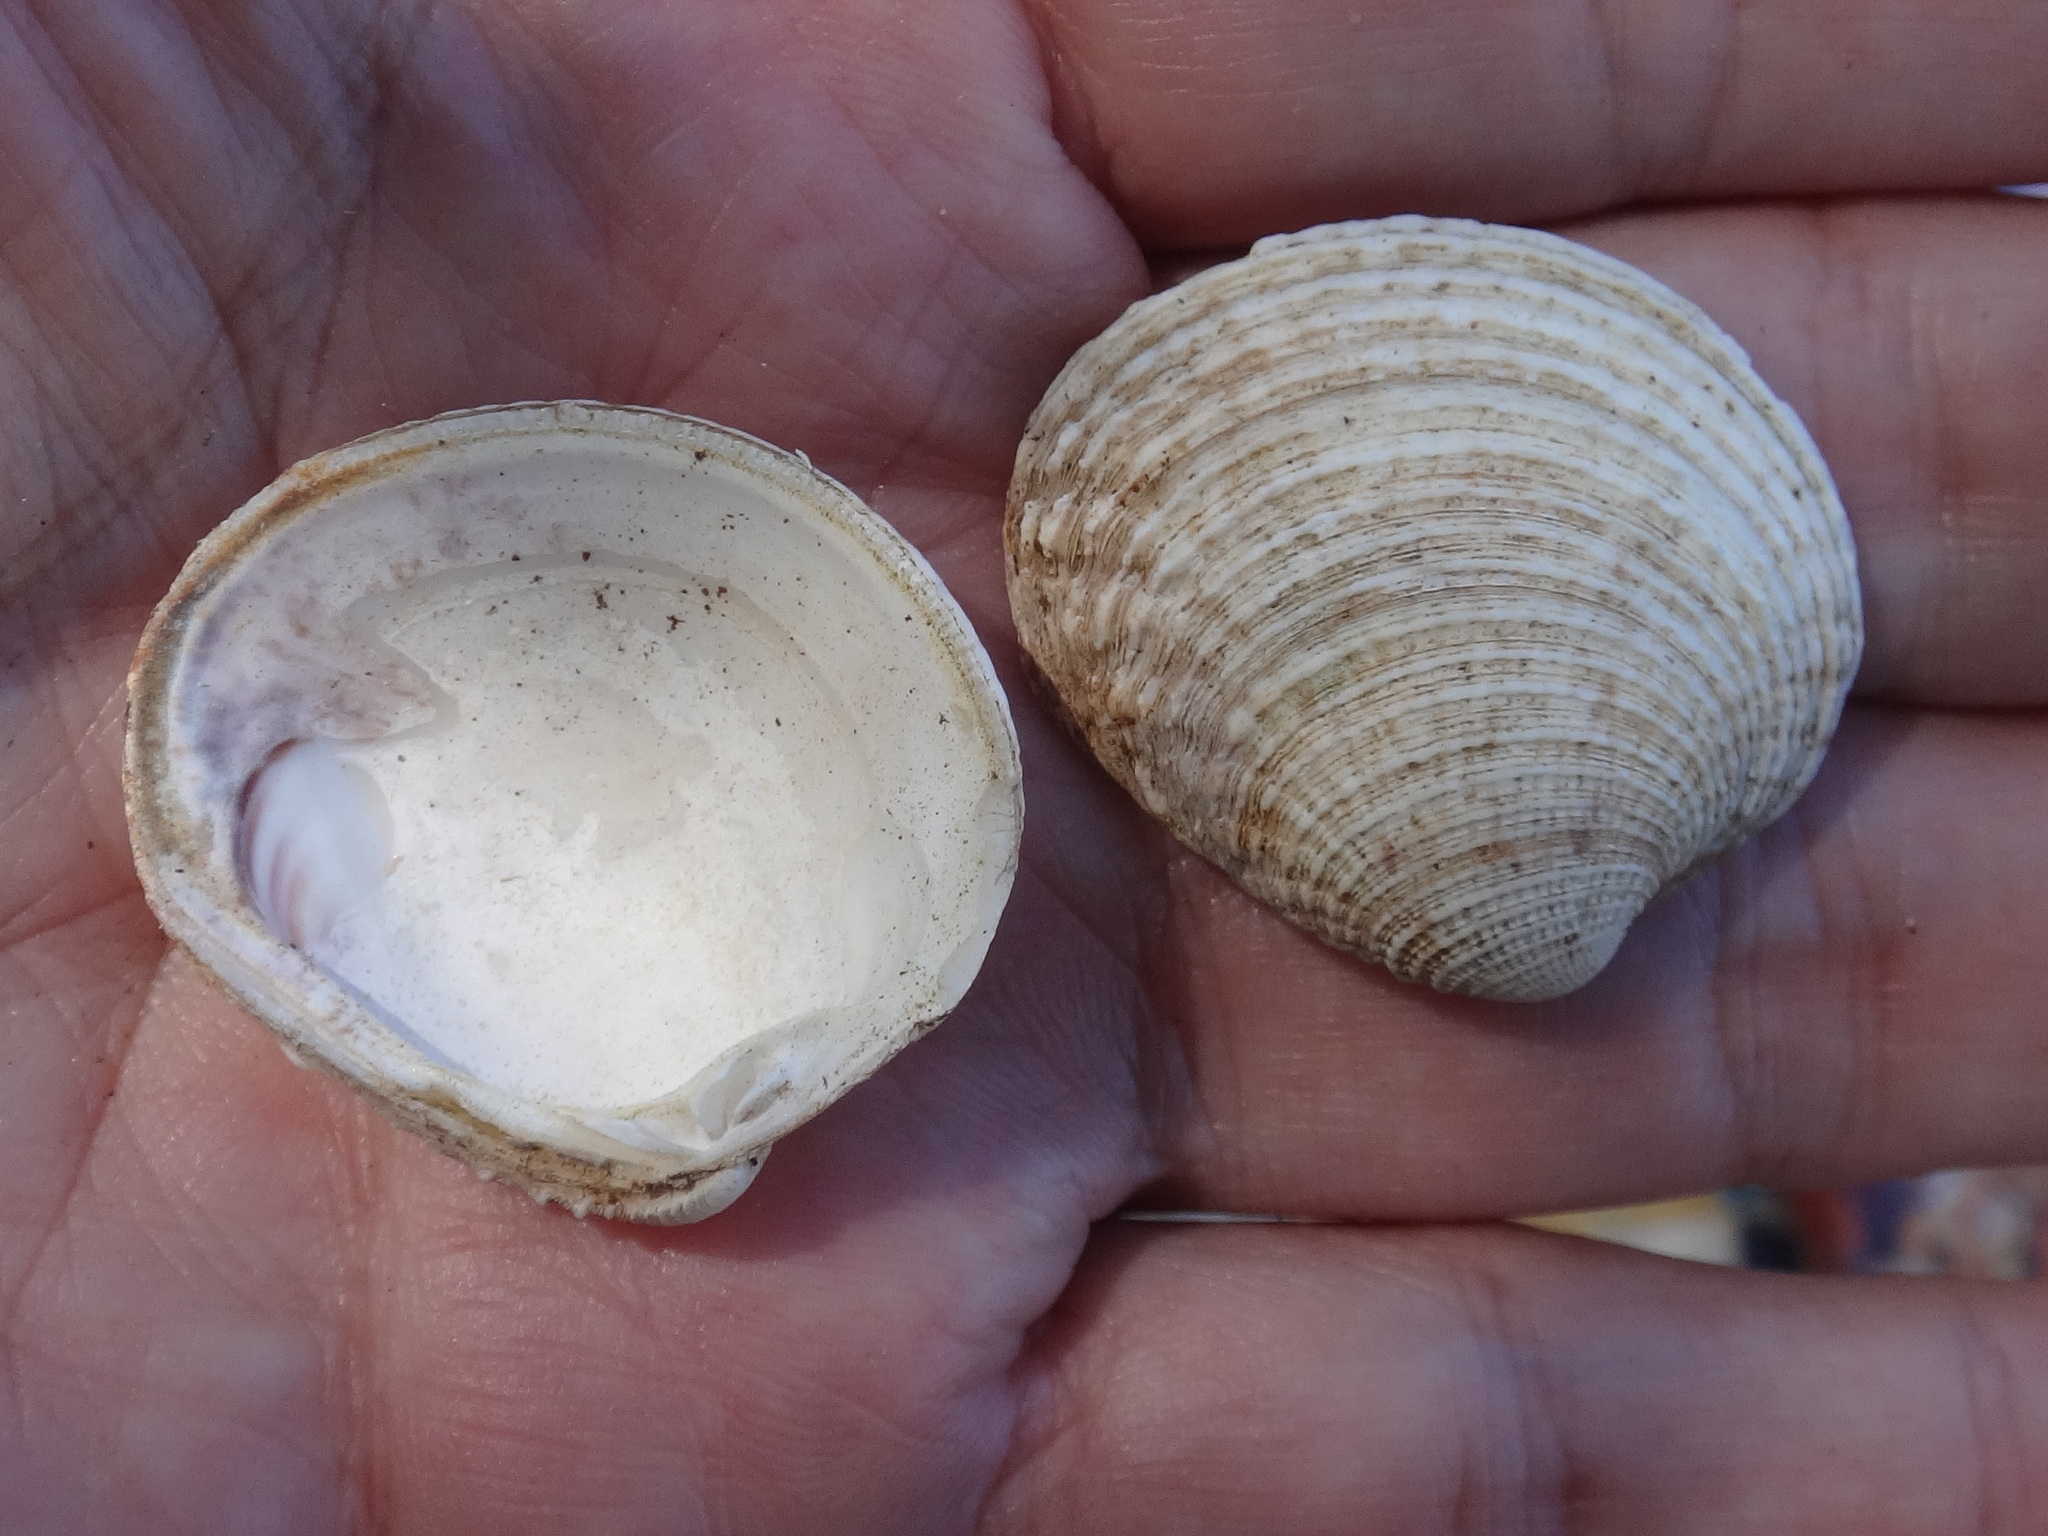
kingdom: Animalia
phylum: Mollusca
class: Bivalvia
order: Venerida
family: Veneridae
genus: Venus
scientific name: Venus verrucosa
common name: Warty venus
